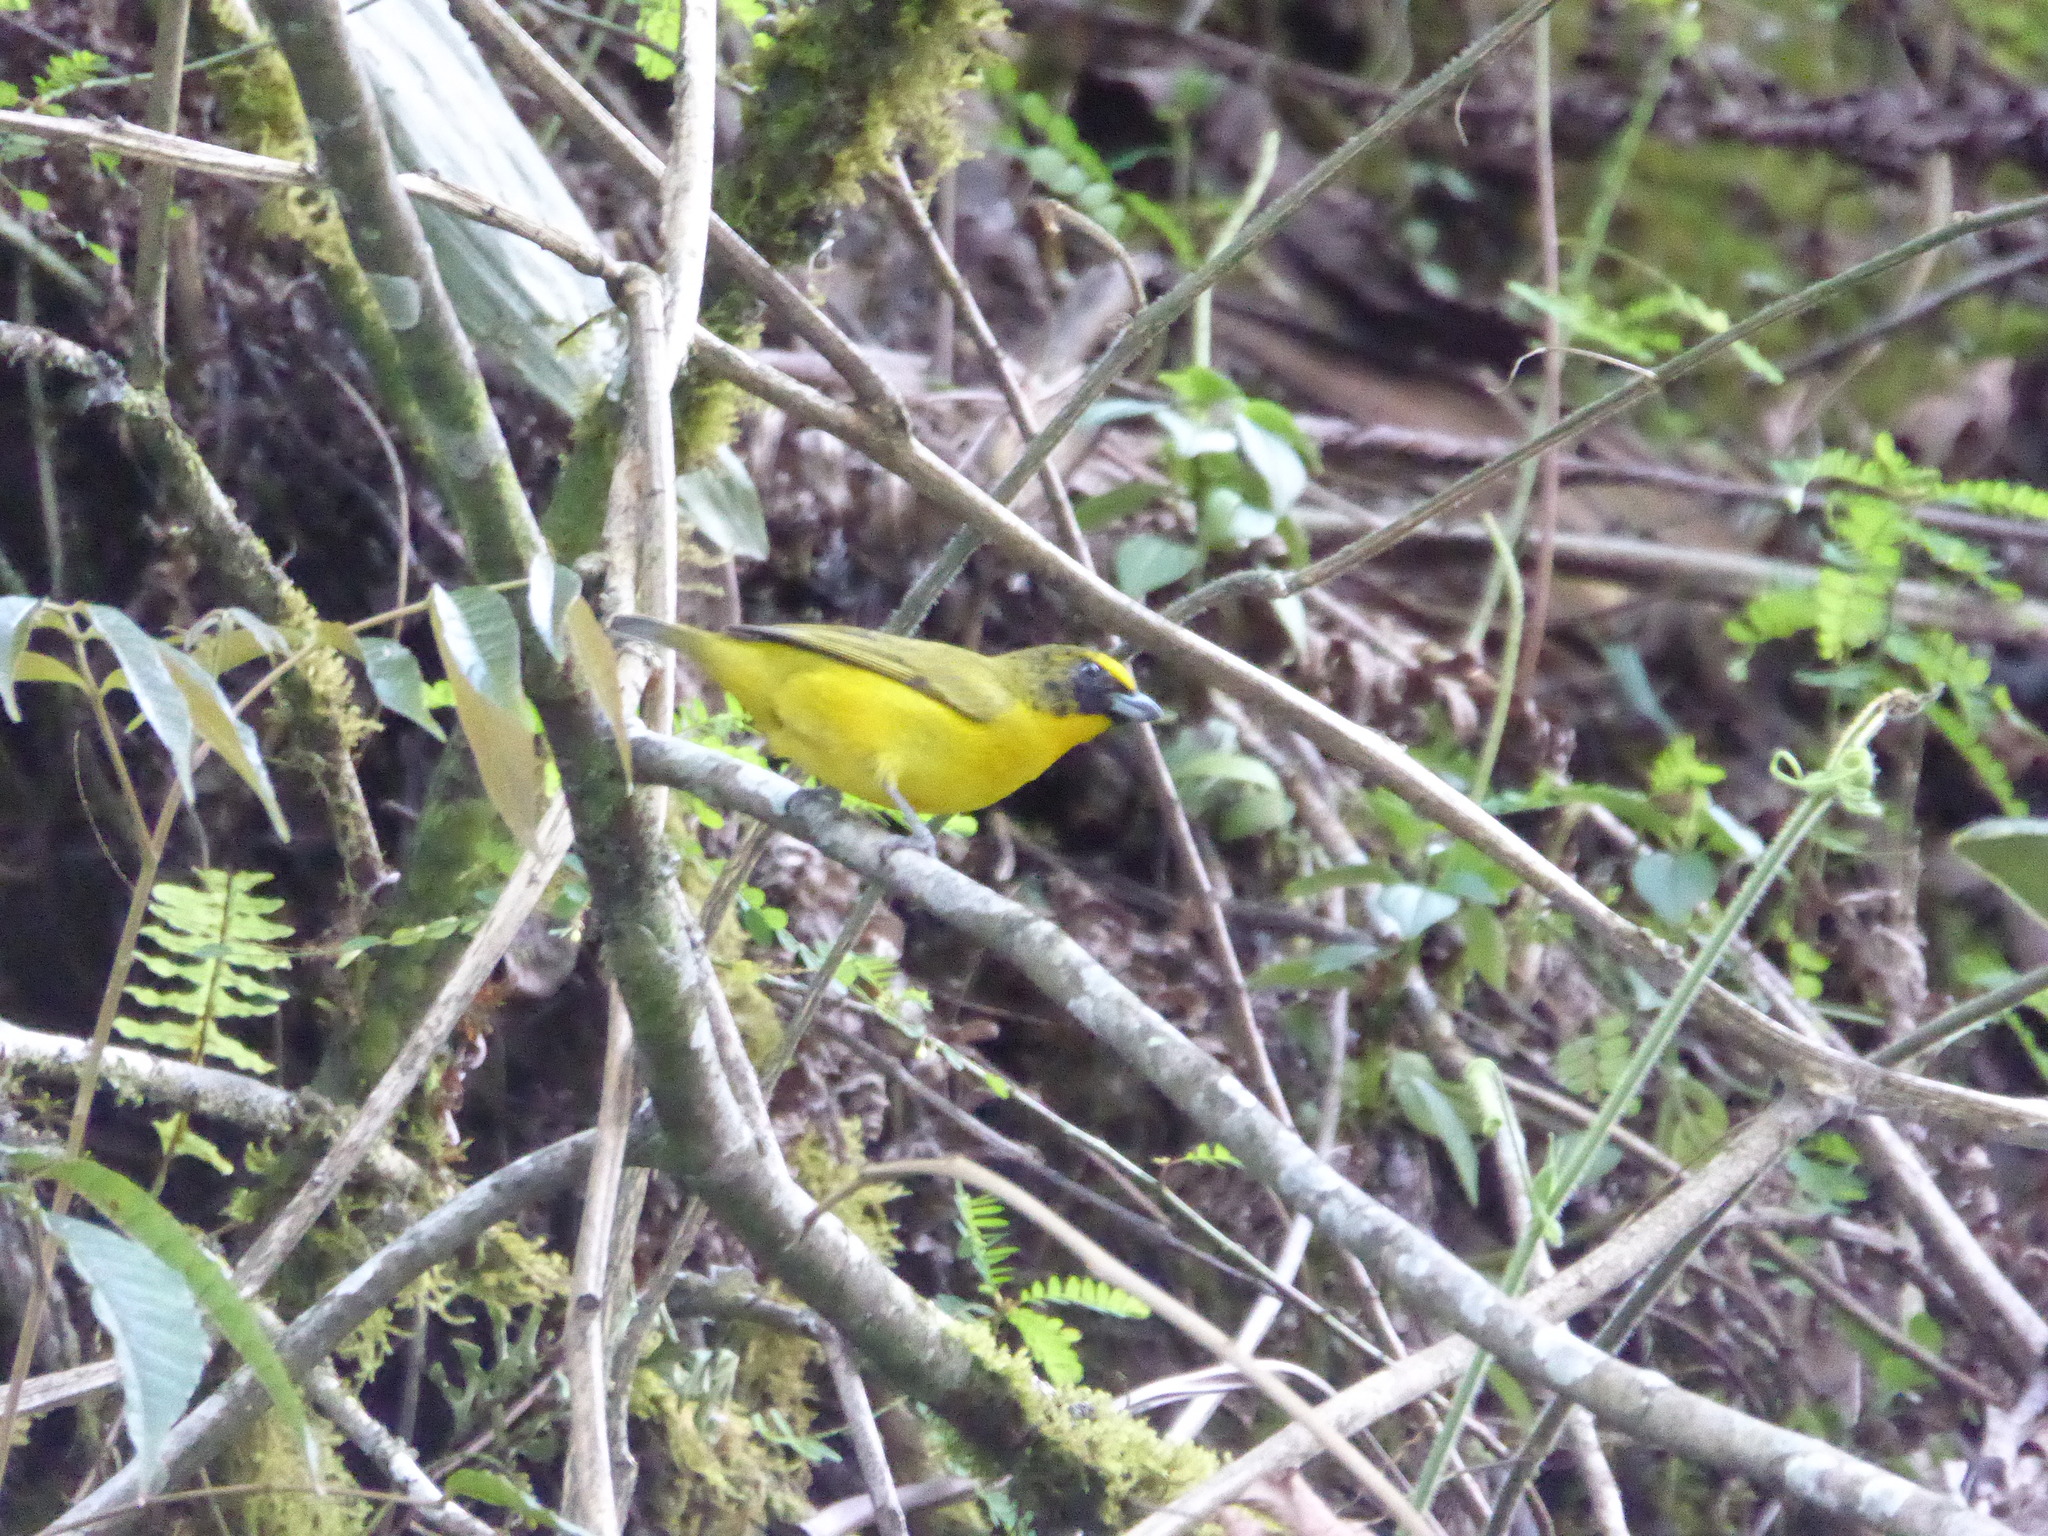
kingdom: Animalia
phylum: Chordata
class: Aves
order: Passeriformes
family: Fringillidae
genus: Euphonia
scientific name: Euphonia laniirostris
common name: Thick-billed euphonia
